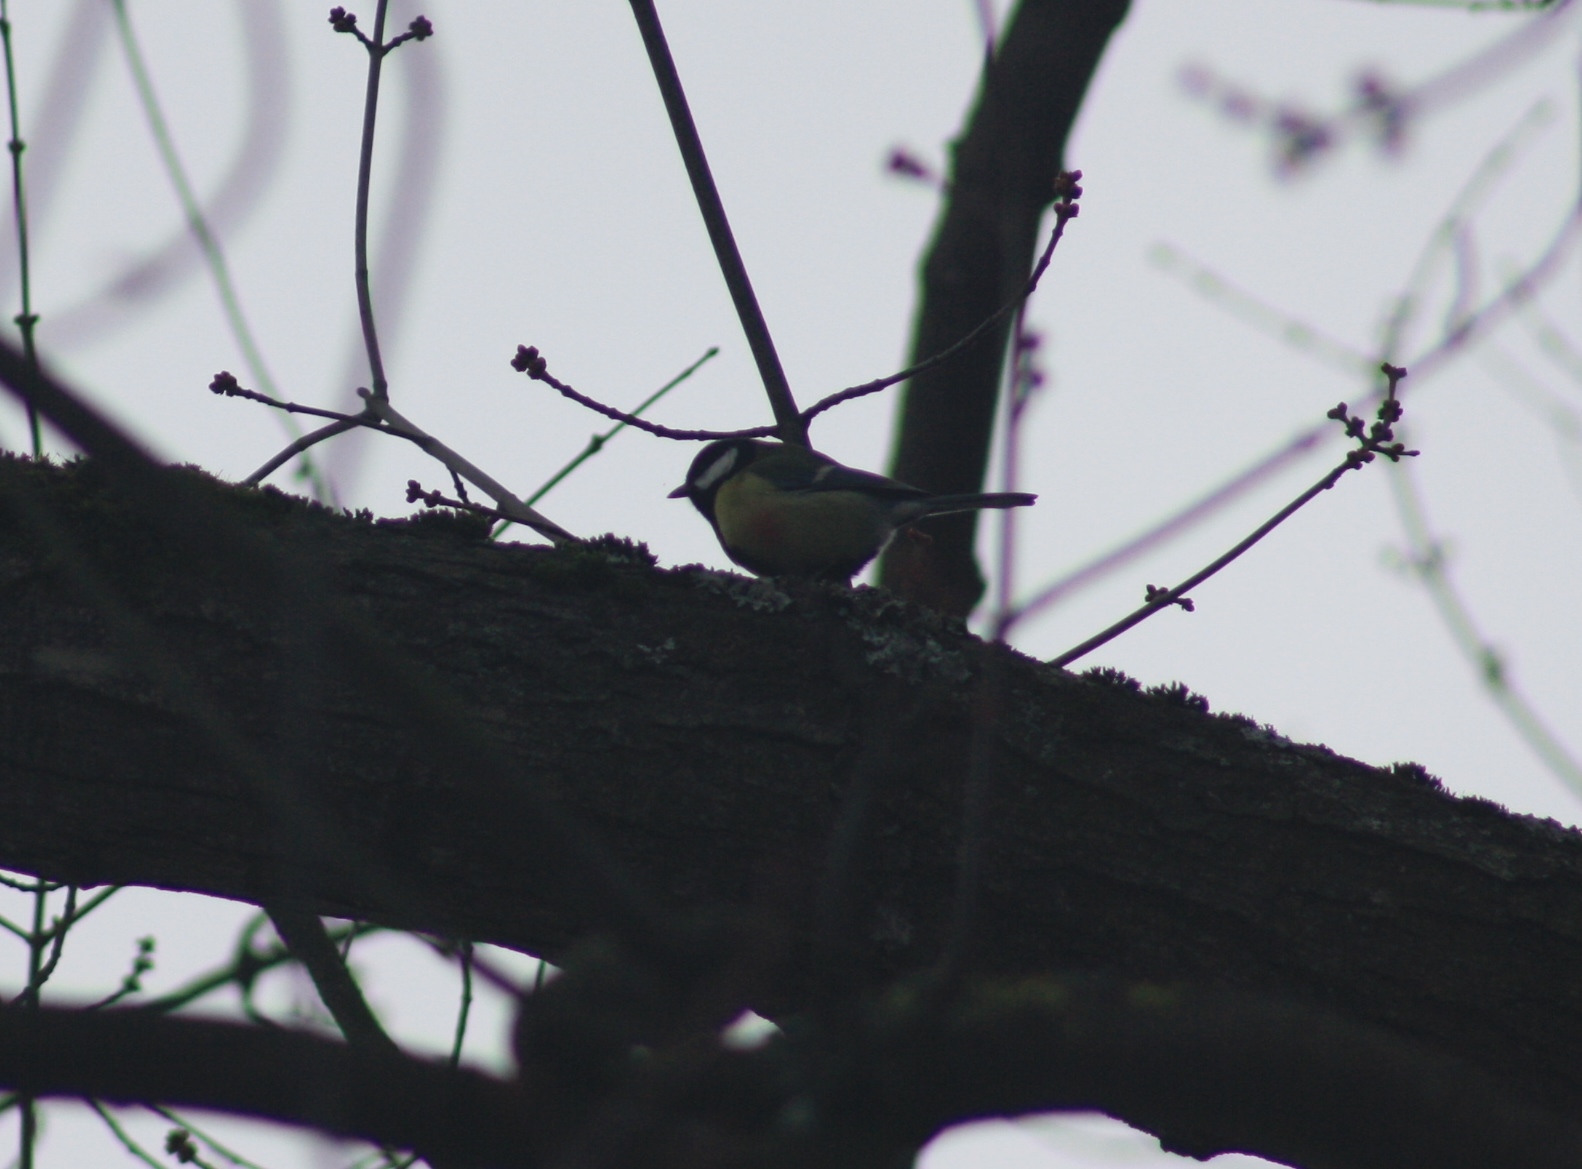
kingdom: Animalia
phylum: Chordata
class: Aves
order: Passeriformes
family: Paridae
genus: Parus
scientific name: Parus major
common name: Great tit
